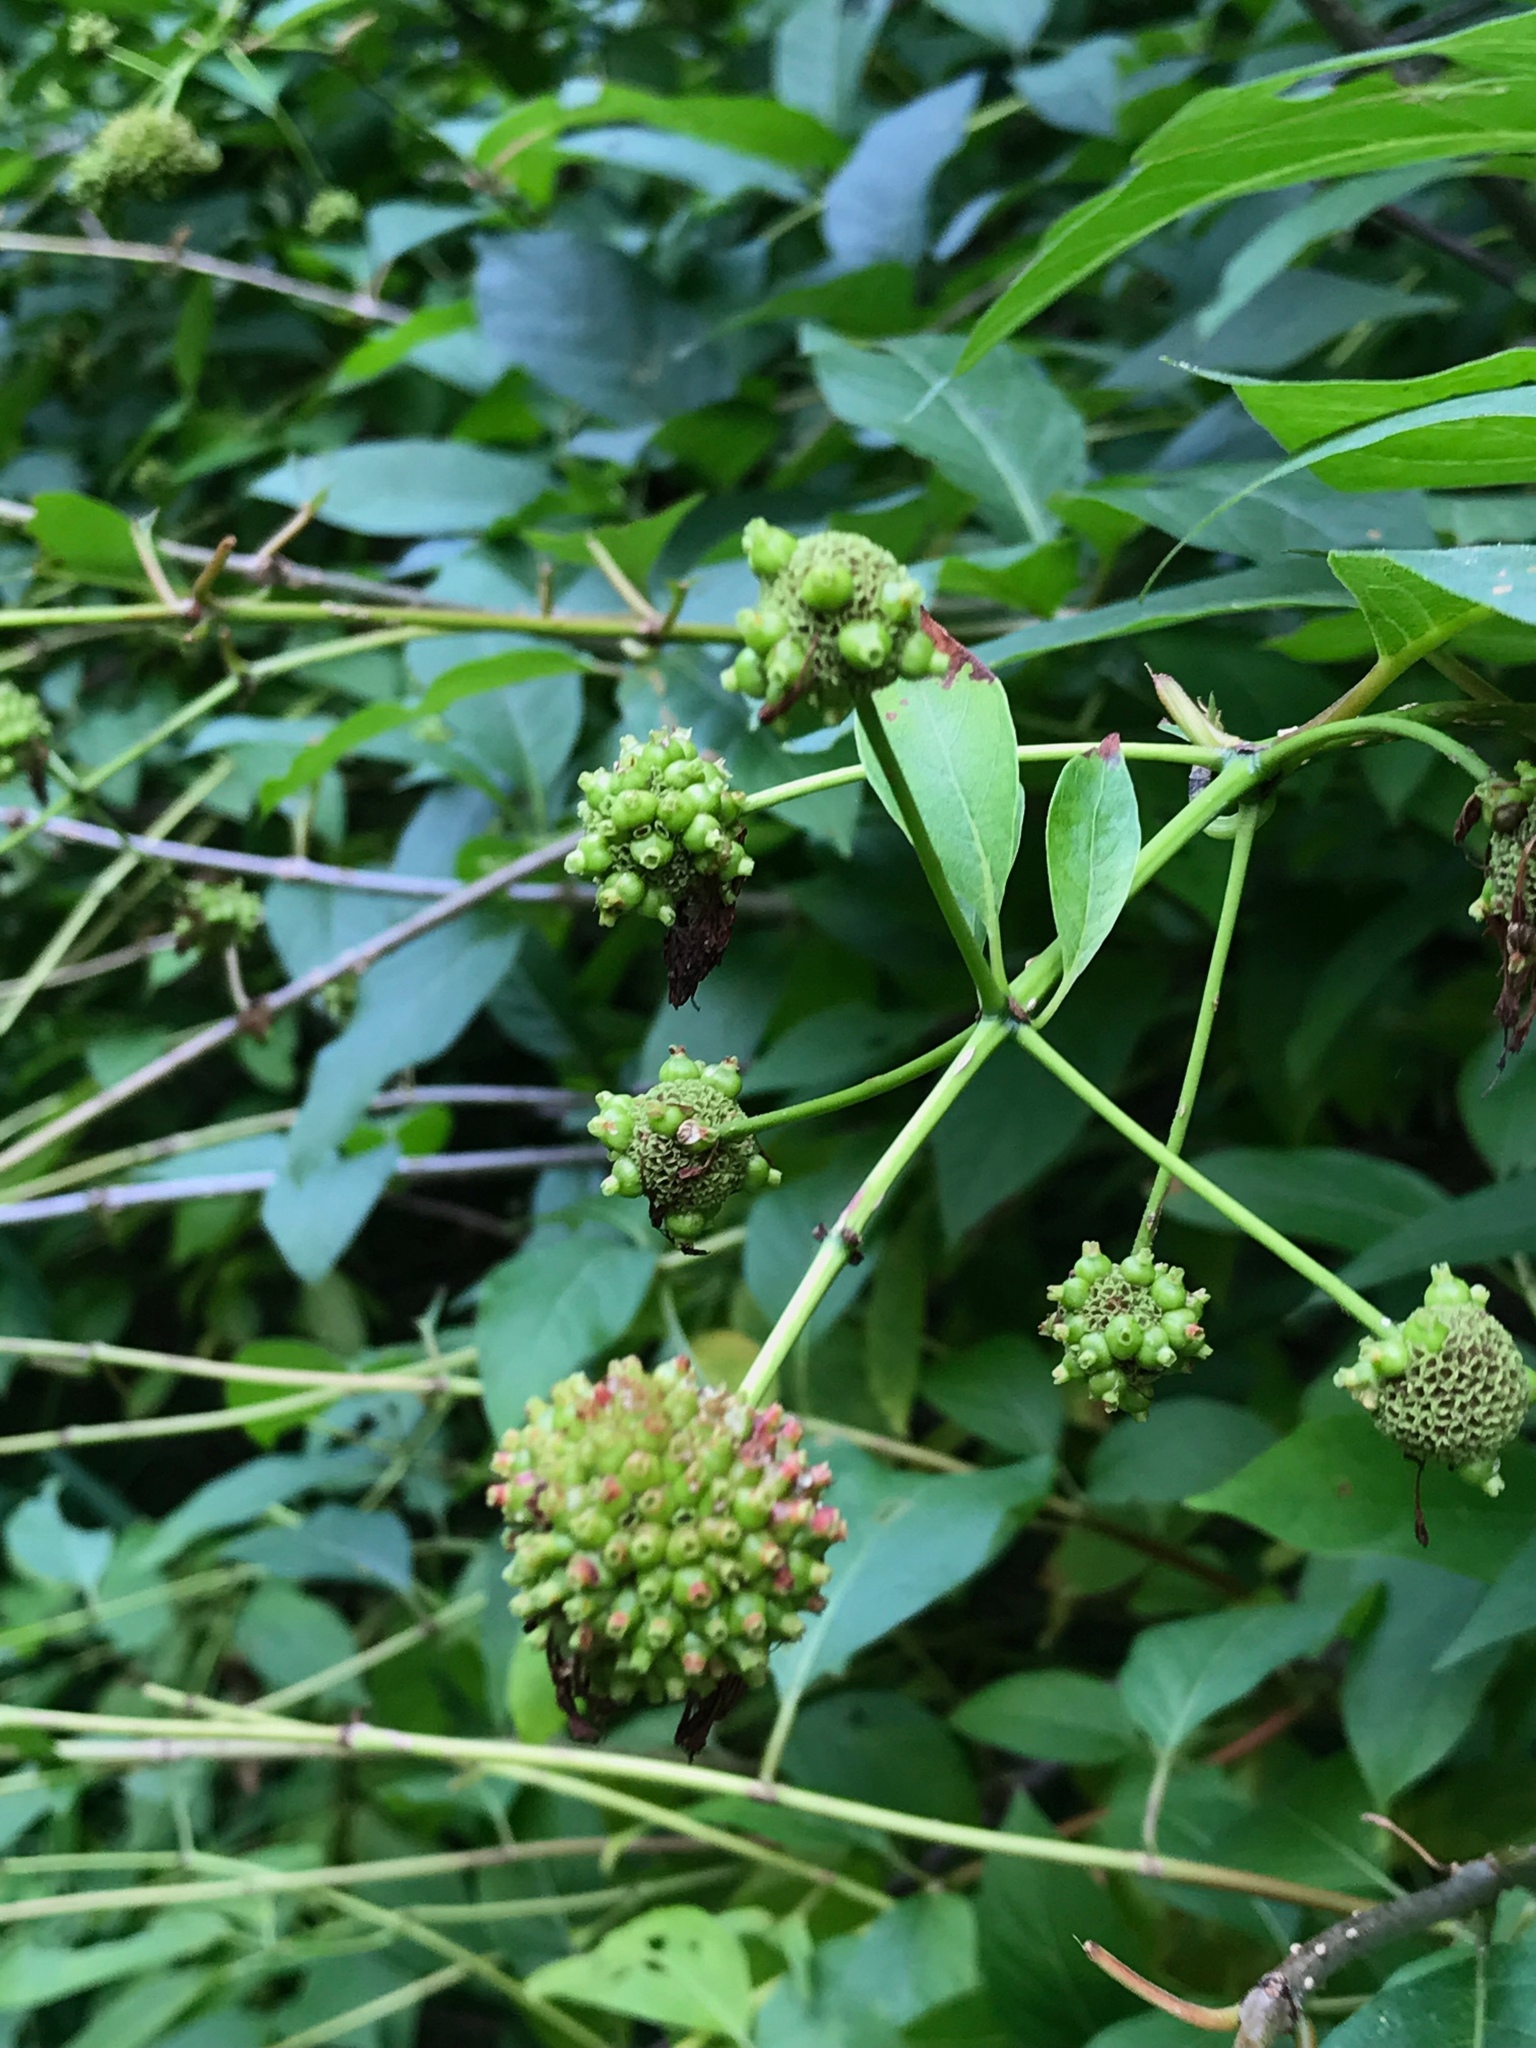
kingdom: Plantae
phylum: Tracheophyta
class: Magnoliopsida
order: Gentianales
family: Rubiaceae
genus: Cephalanthus
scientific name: Cephalanthus occidentalis
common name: Button-willow
